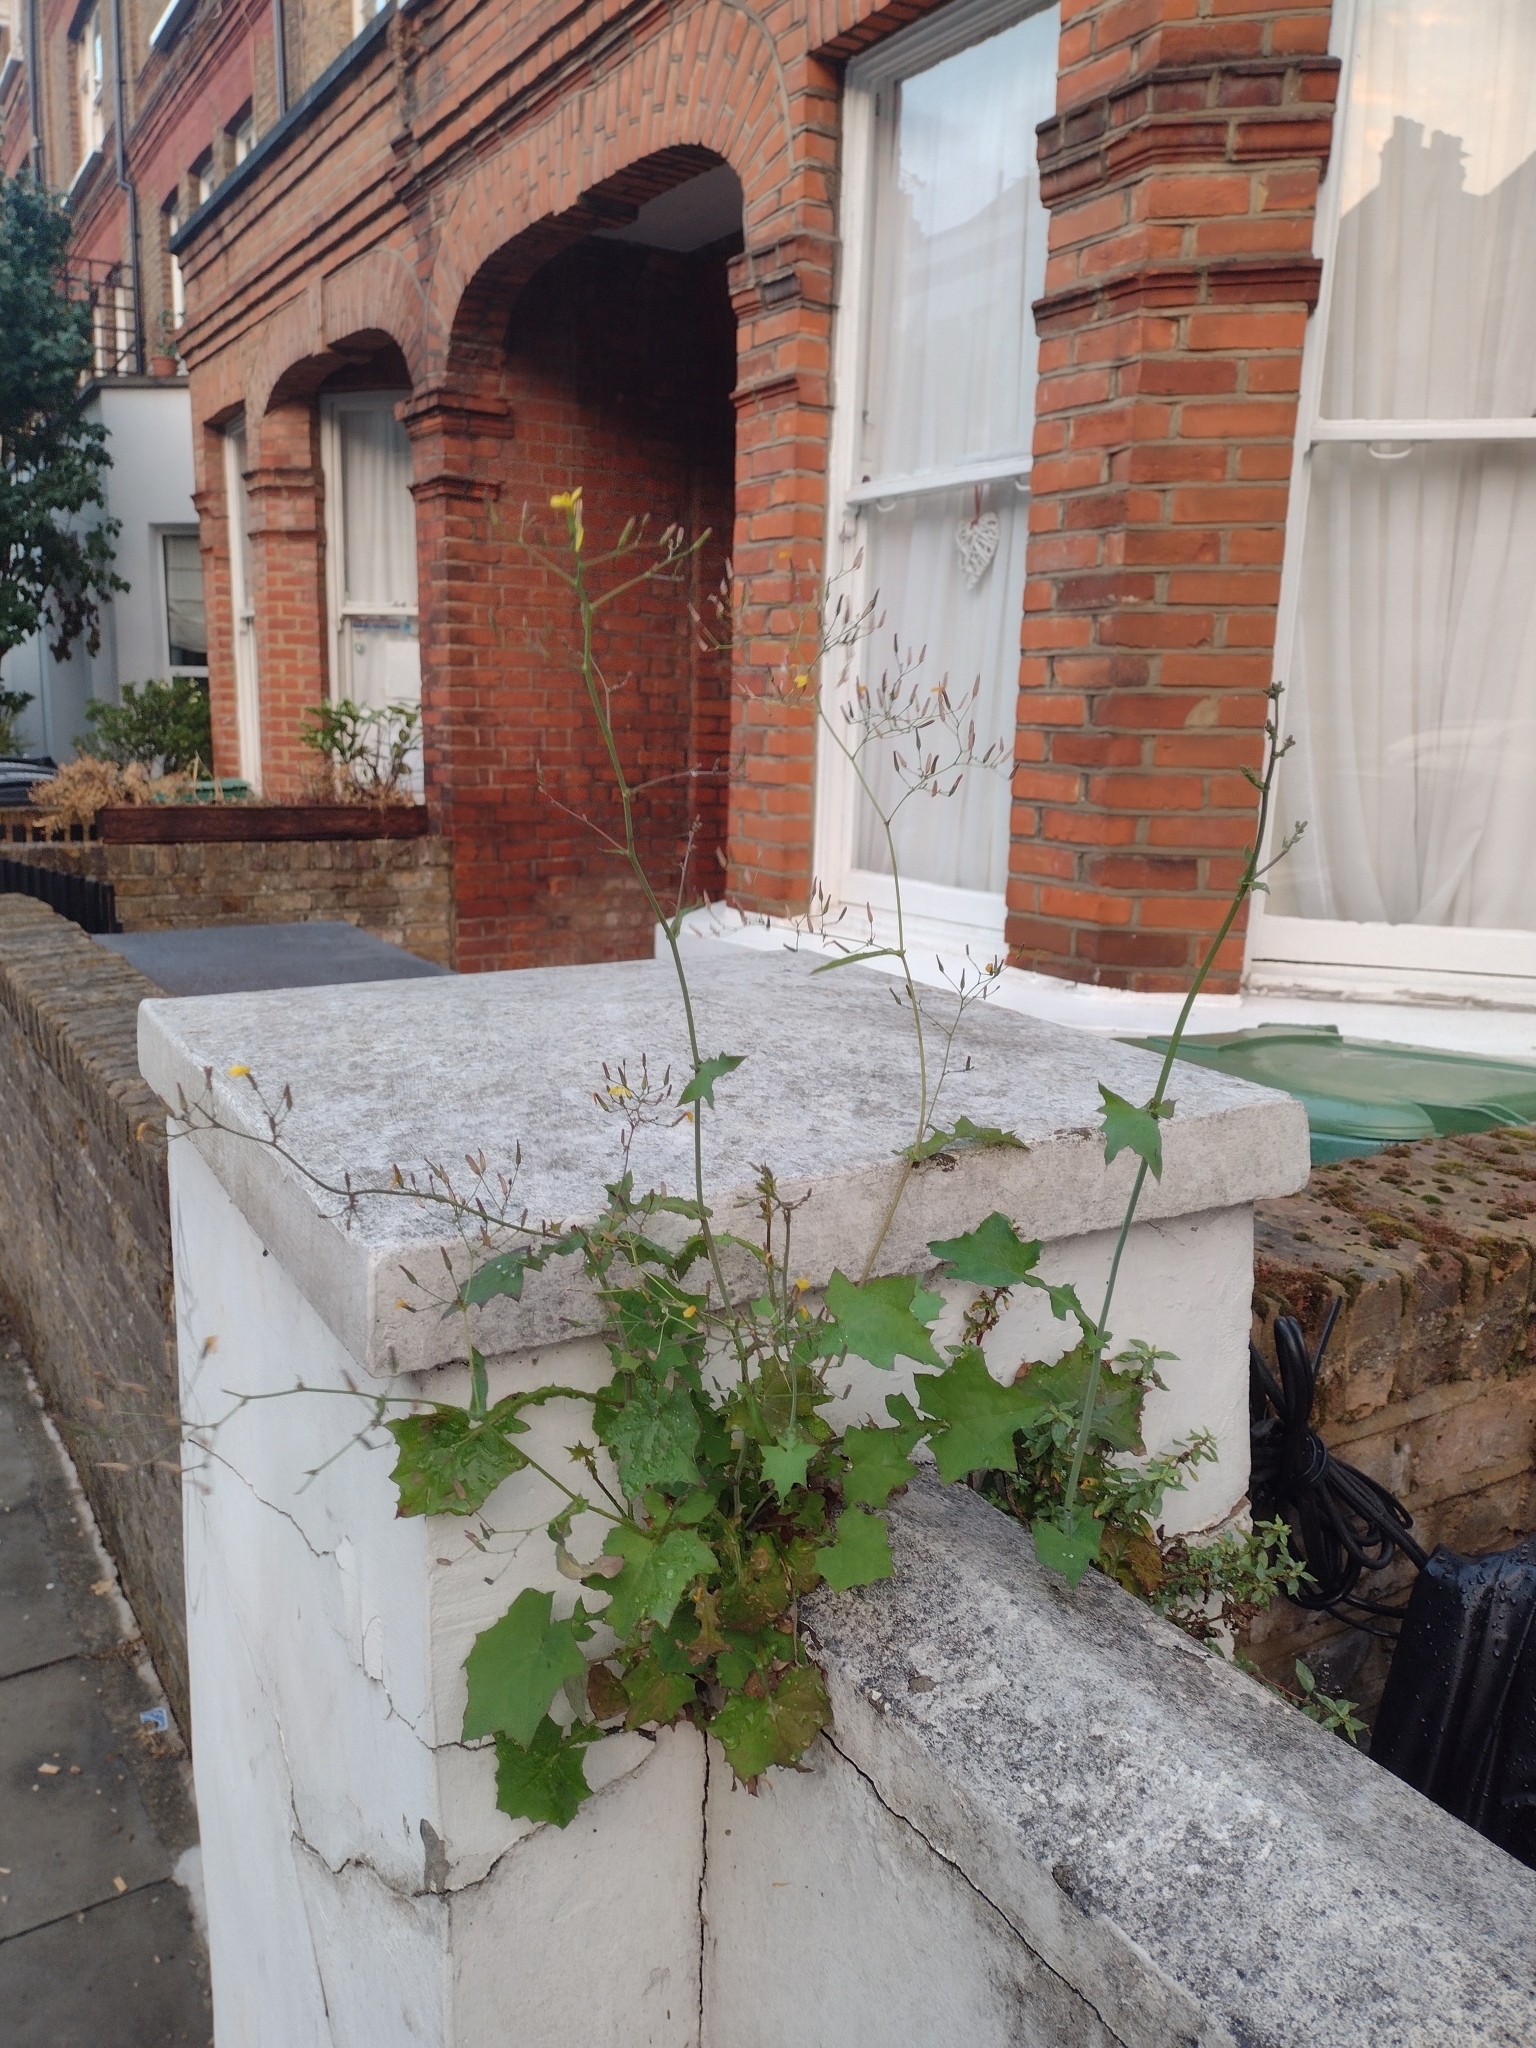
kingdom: Plantae
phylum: Tracheophyta
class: Magnoliopsida
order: Asterales
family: Asteraceae
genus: Mycelis
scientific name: Mycelis muralis
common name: Wall lettuce
